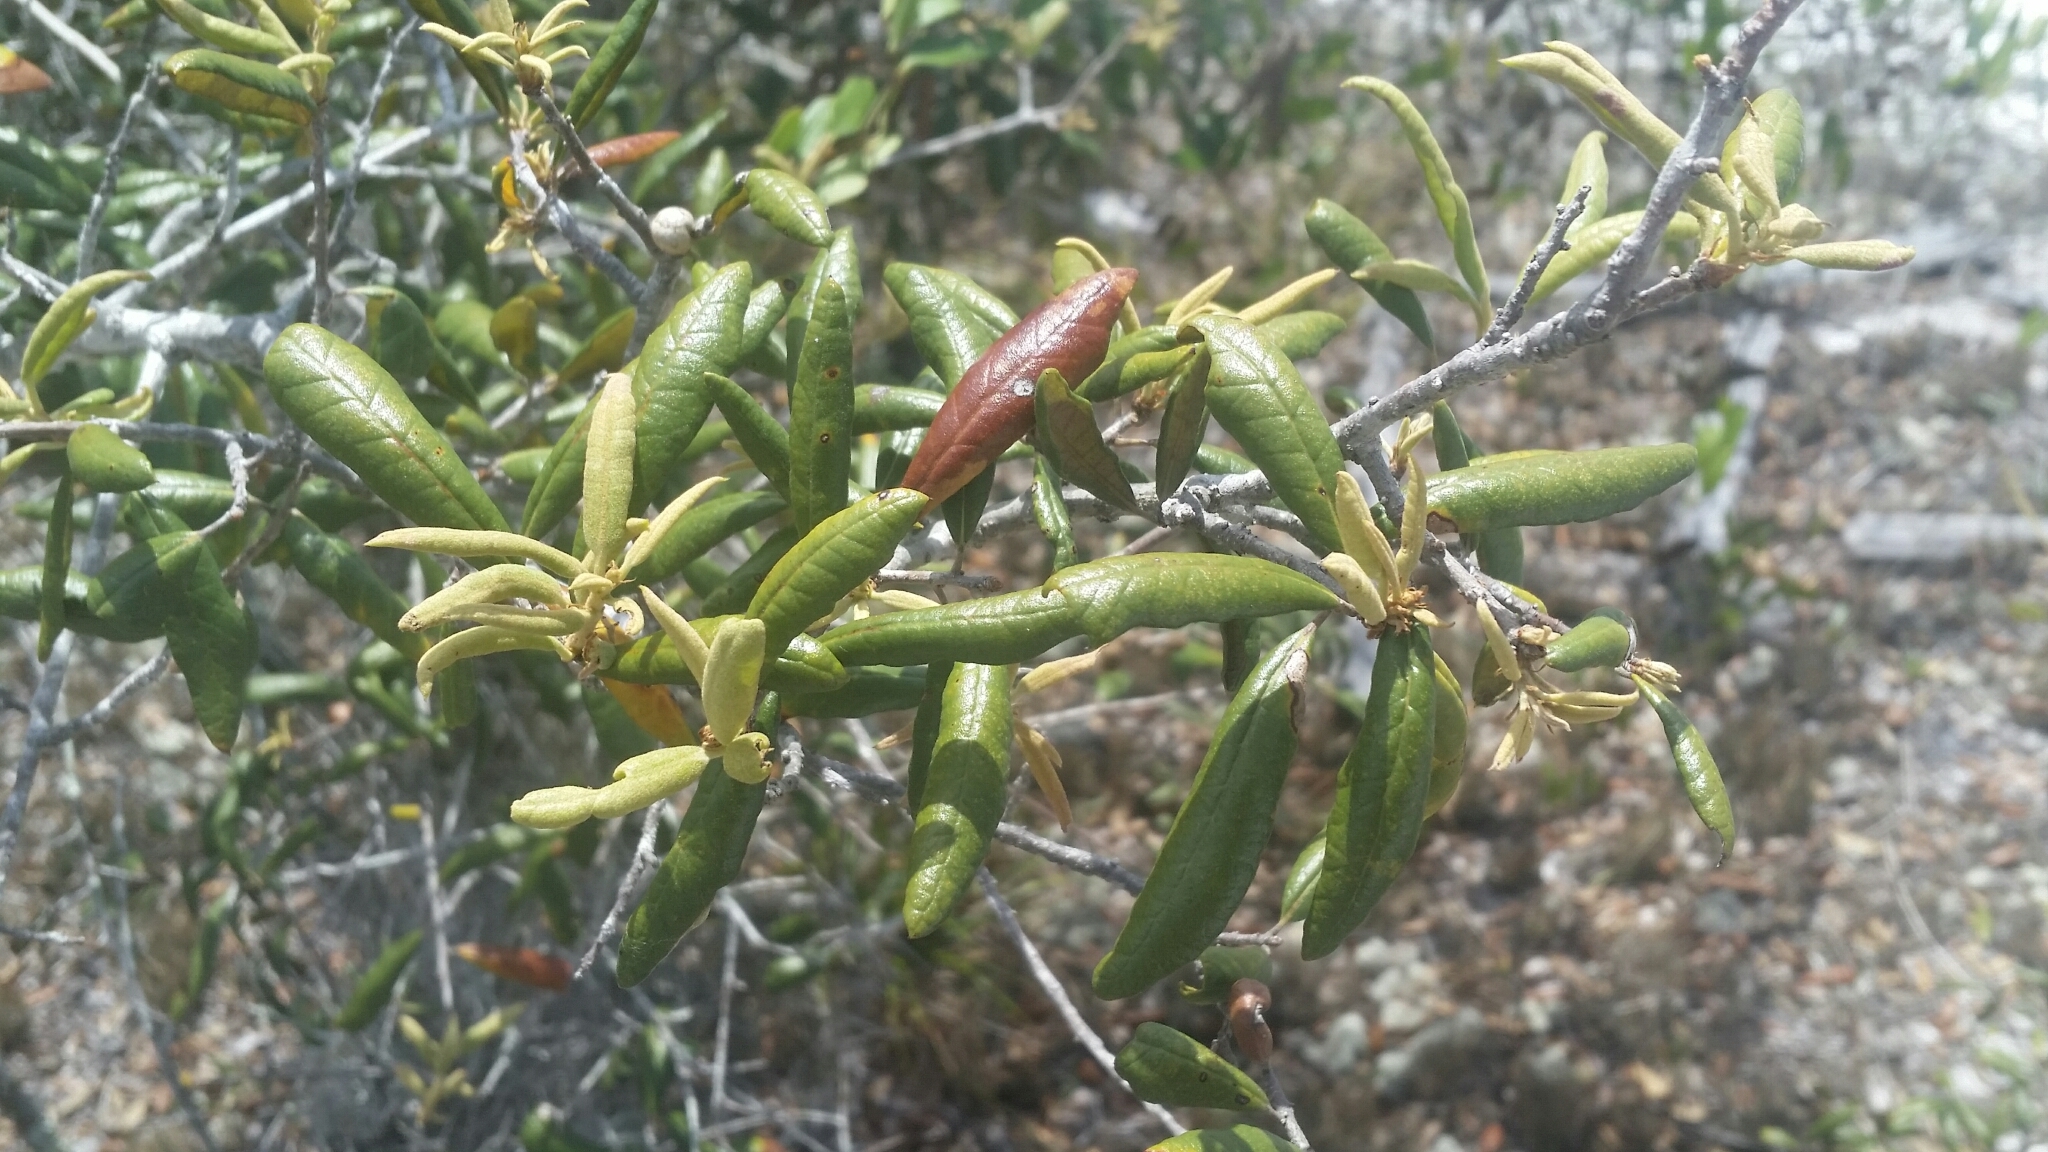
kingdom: Plantae
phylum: Tracheophyta
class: Magnoliopsida
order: Fagales
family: Fagaceae
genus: Quercus
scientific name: Quercus geminata
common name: Sand live oak
